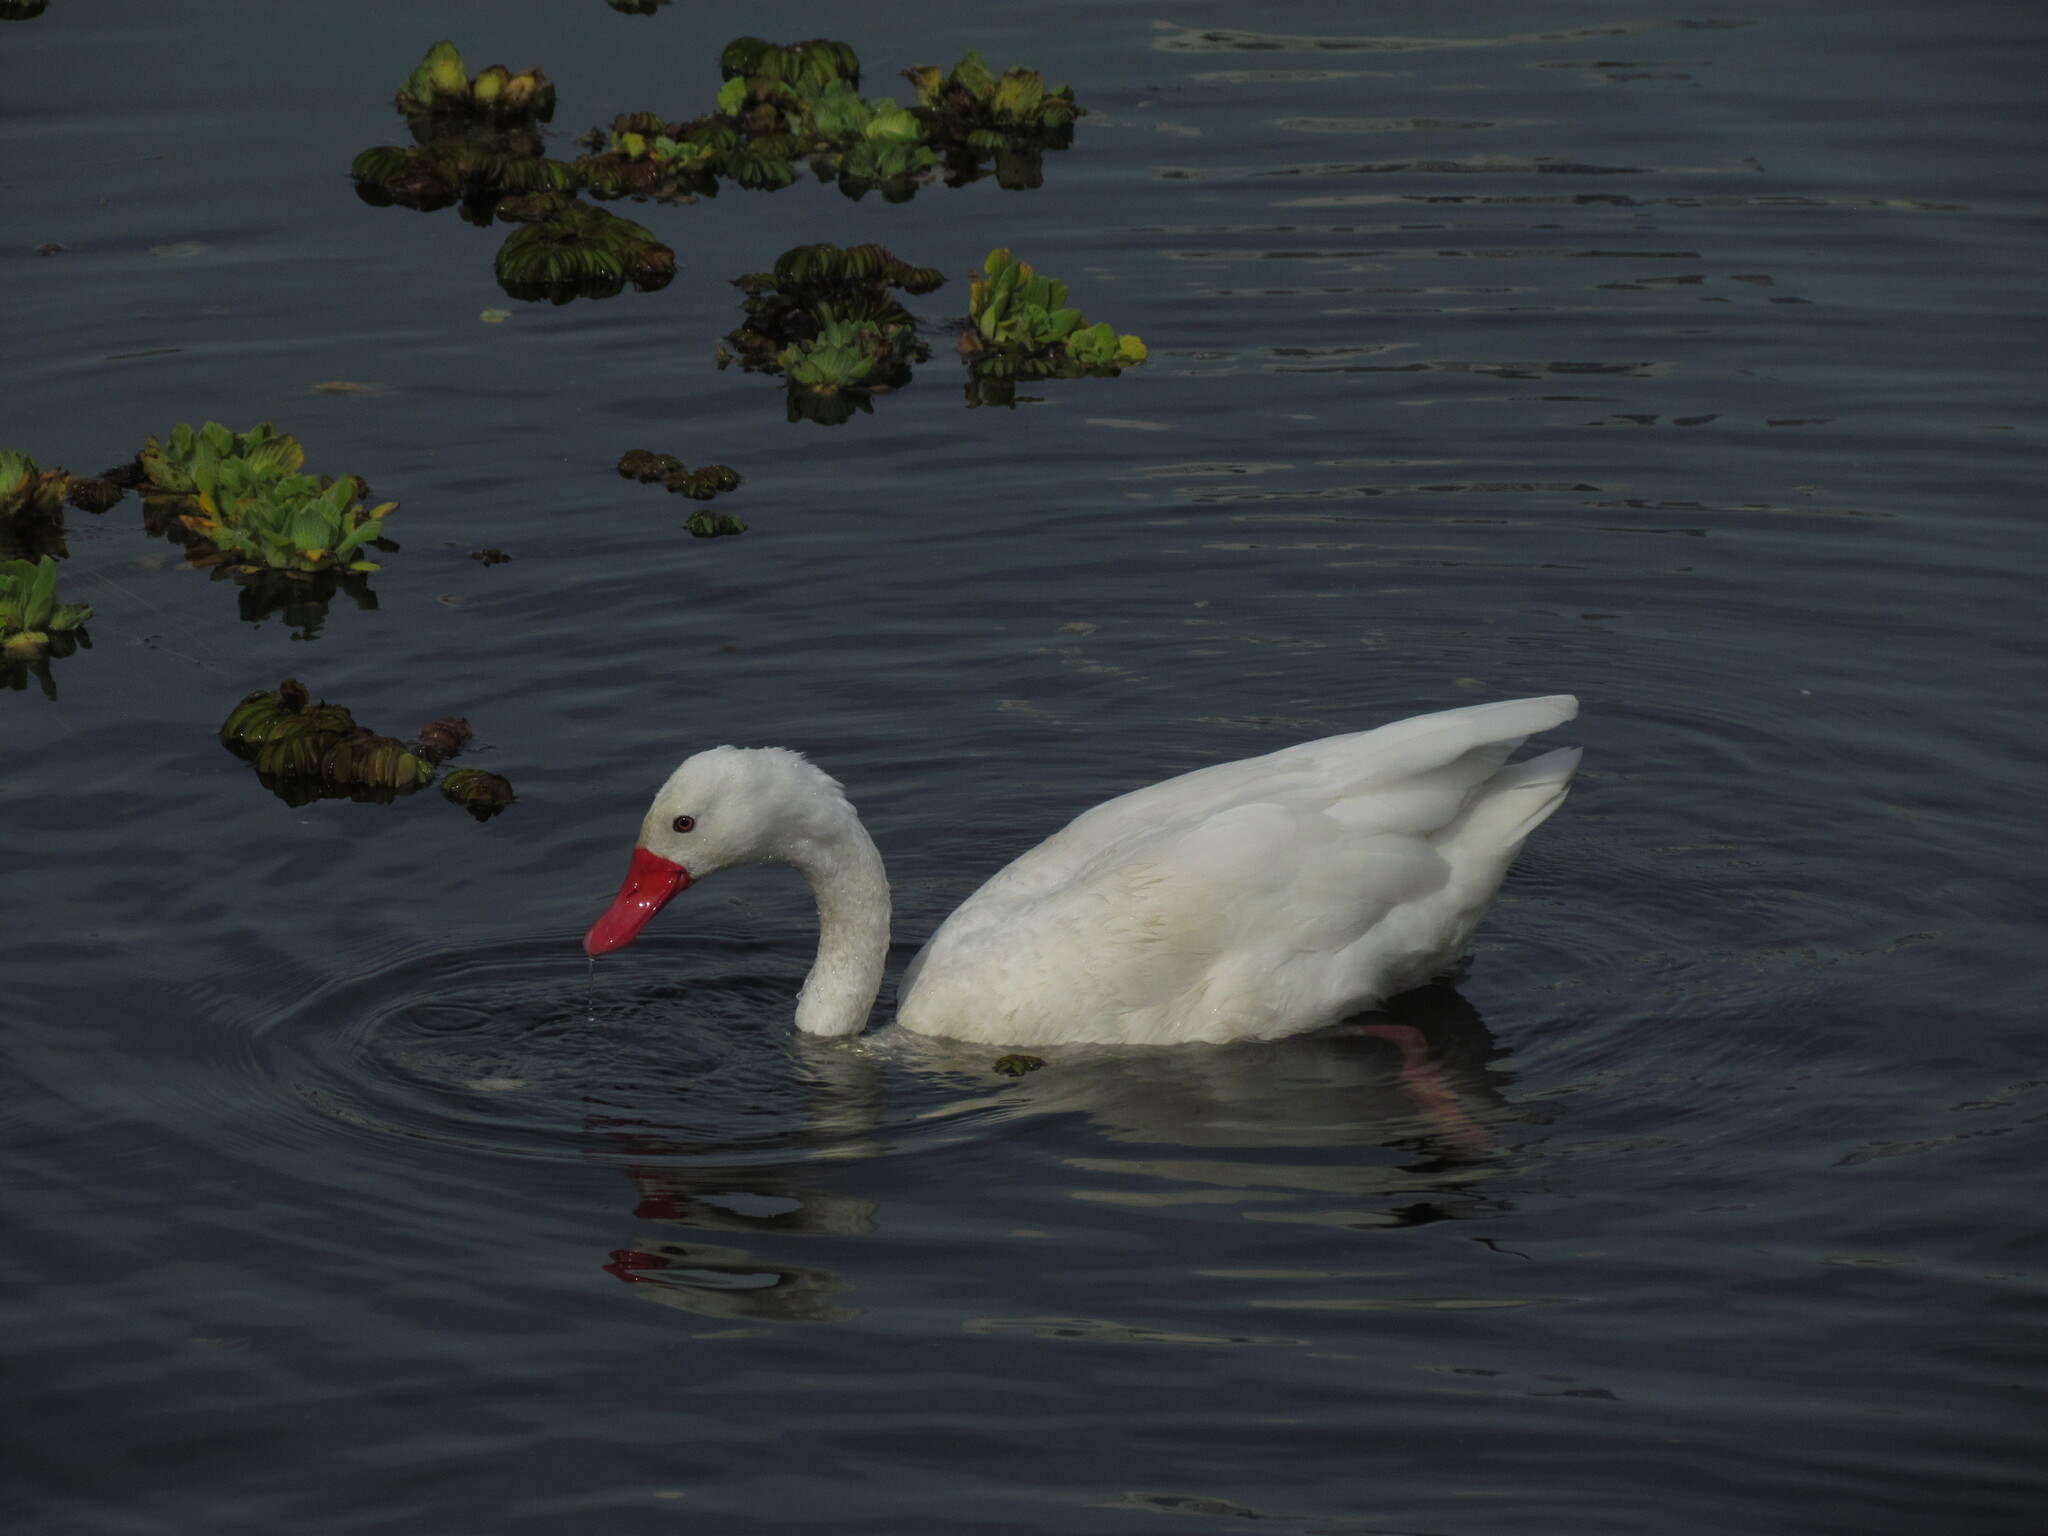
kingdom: Animalia
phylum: Chordata
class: Aves
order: Anseriformes
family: Anatidae
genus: Coscoroba
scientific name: Coscoroba coscoroba
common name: Coscoroba swan
